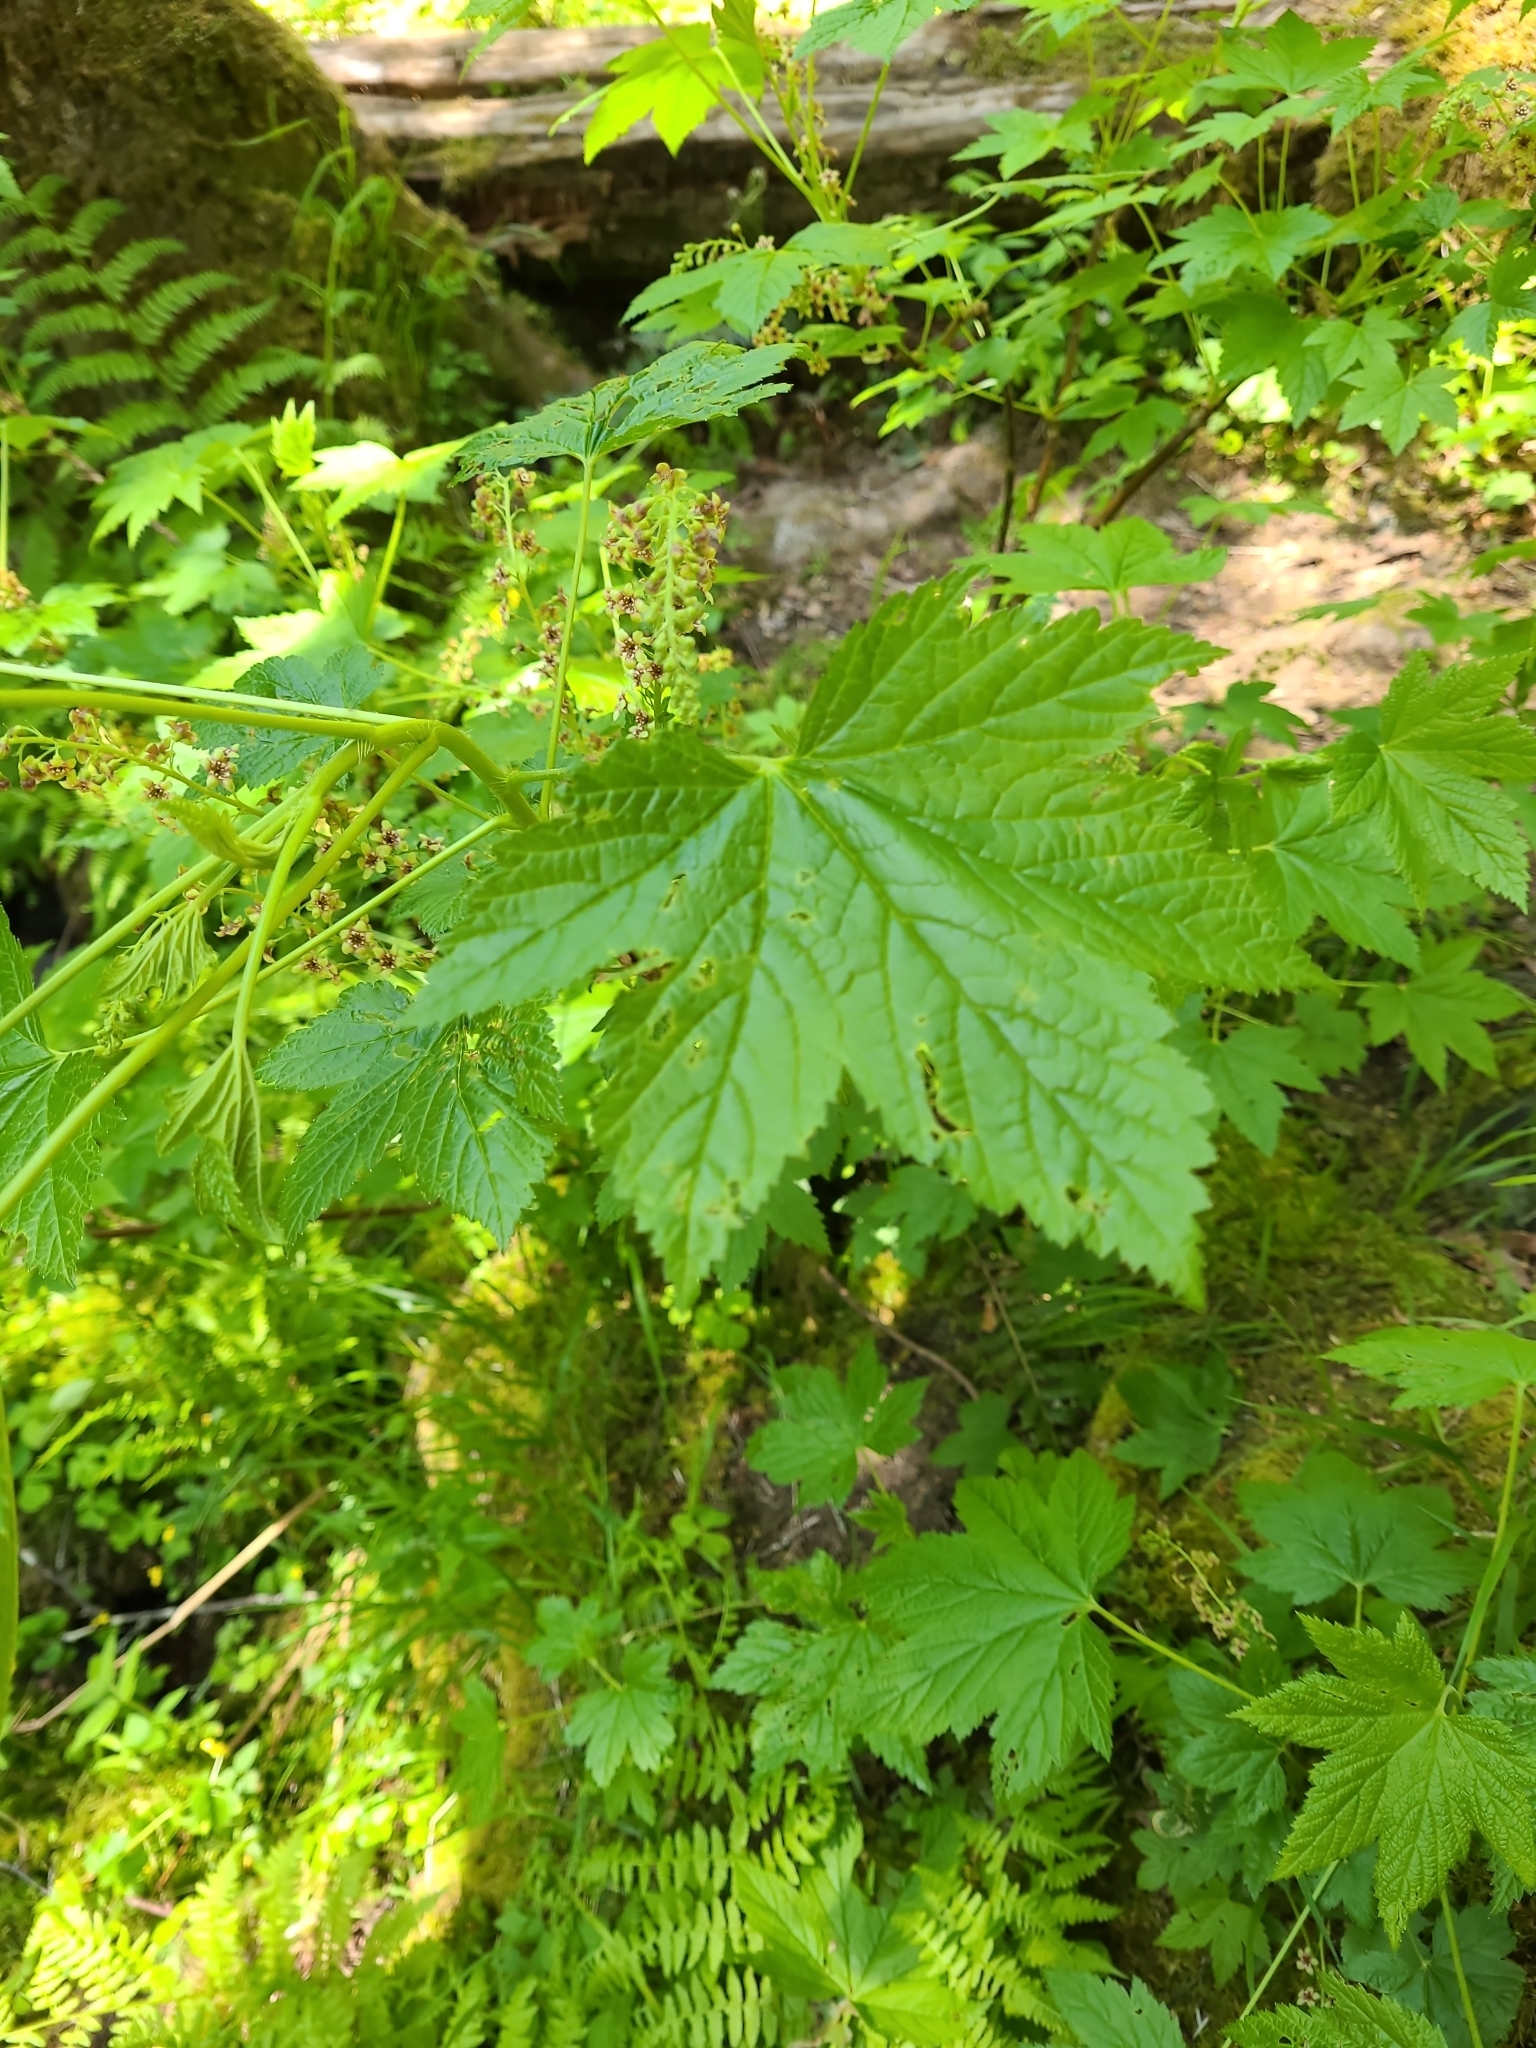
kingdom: Plantae
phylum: Tracheophyta
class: Magnoliopsida
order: Saxifragales
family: Grossulariaceae
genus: Ribes
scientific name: Ribes bracteosum
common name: California black currant
